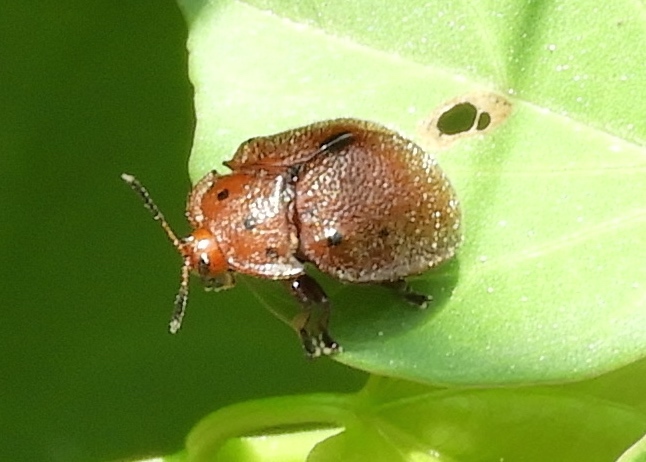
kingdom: Animalia
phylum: Arthropoda
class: Insecta
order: Coleoptera
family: Chrysomelidae
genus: Chelymorpha
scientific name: Chelymorpha
